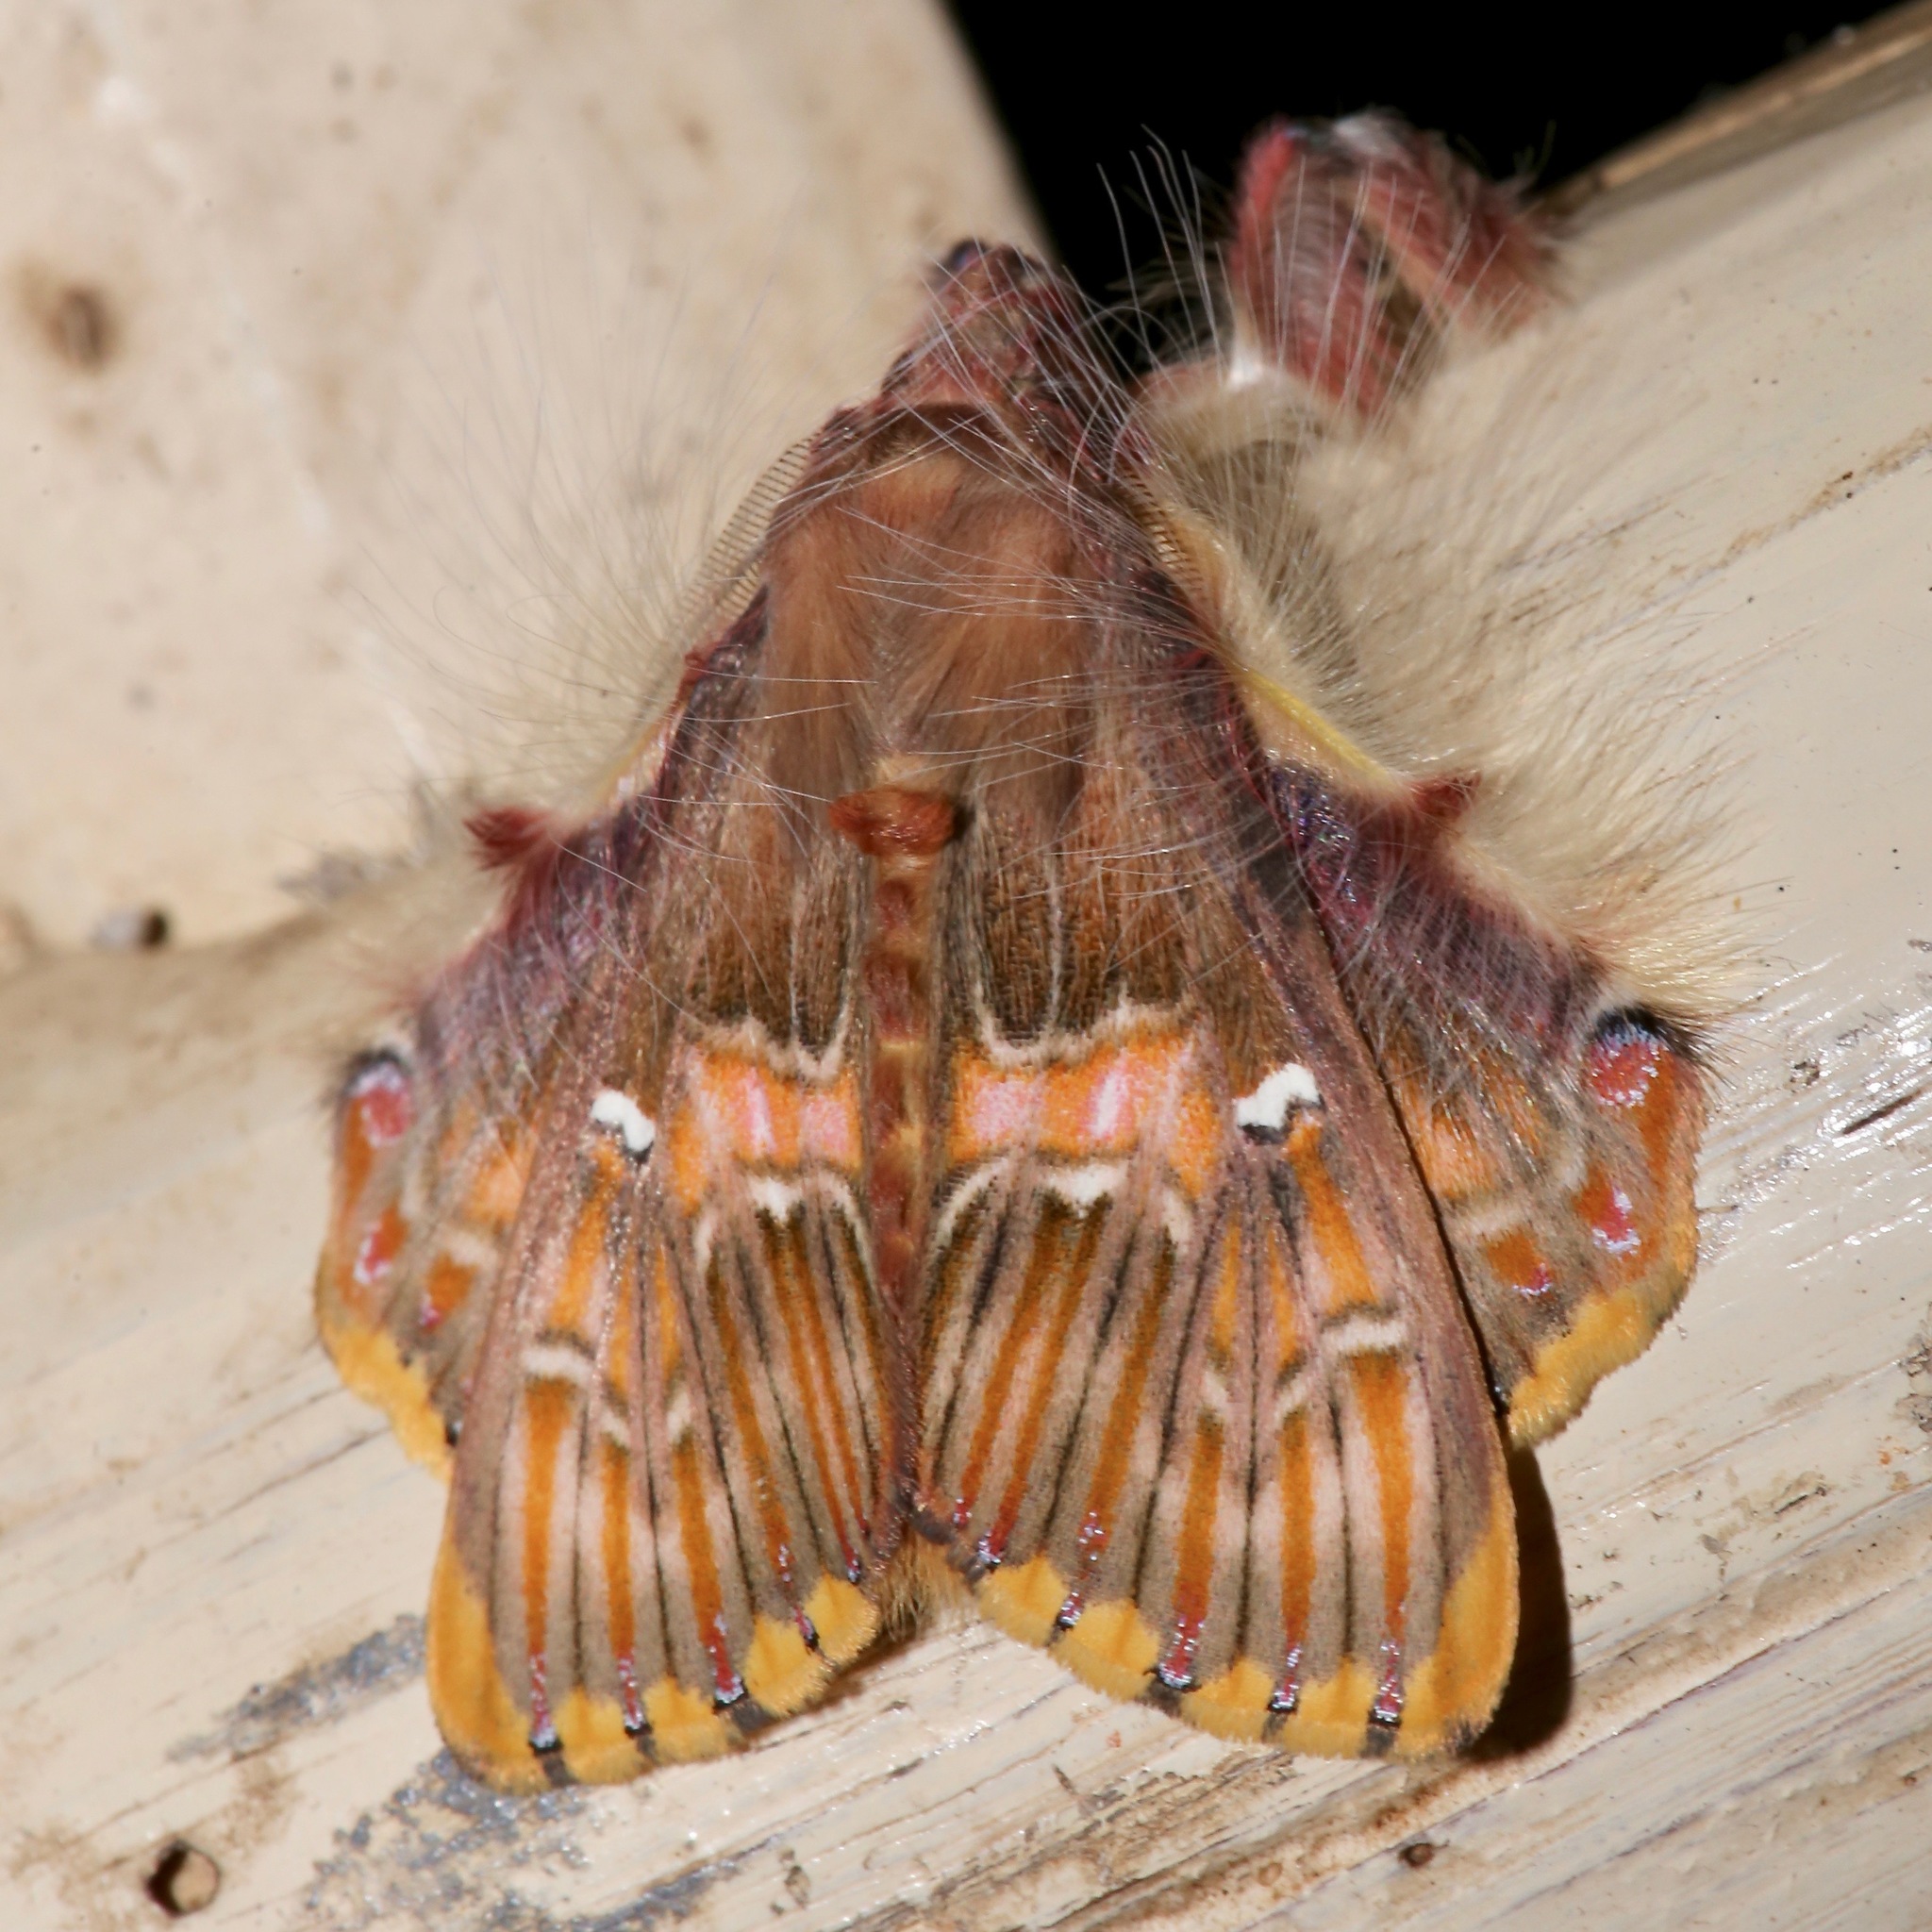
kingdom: Animalia
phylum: Arthropoda
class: Insecta
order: Lepidoptera
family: Erebidae
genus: Sosxetra
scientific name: Sosxetra grata
